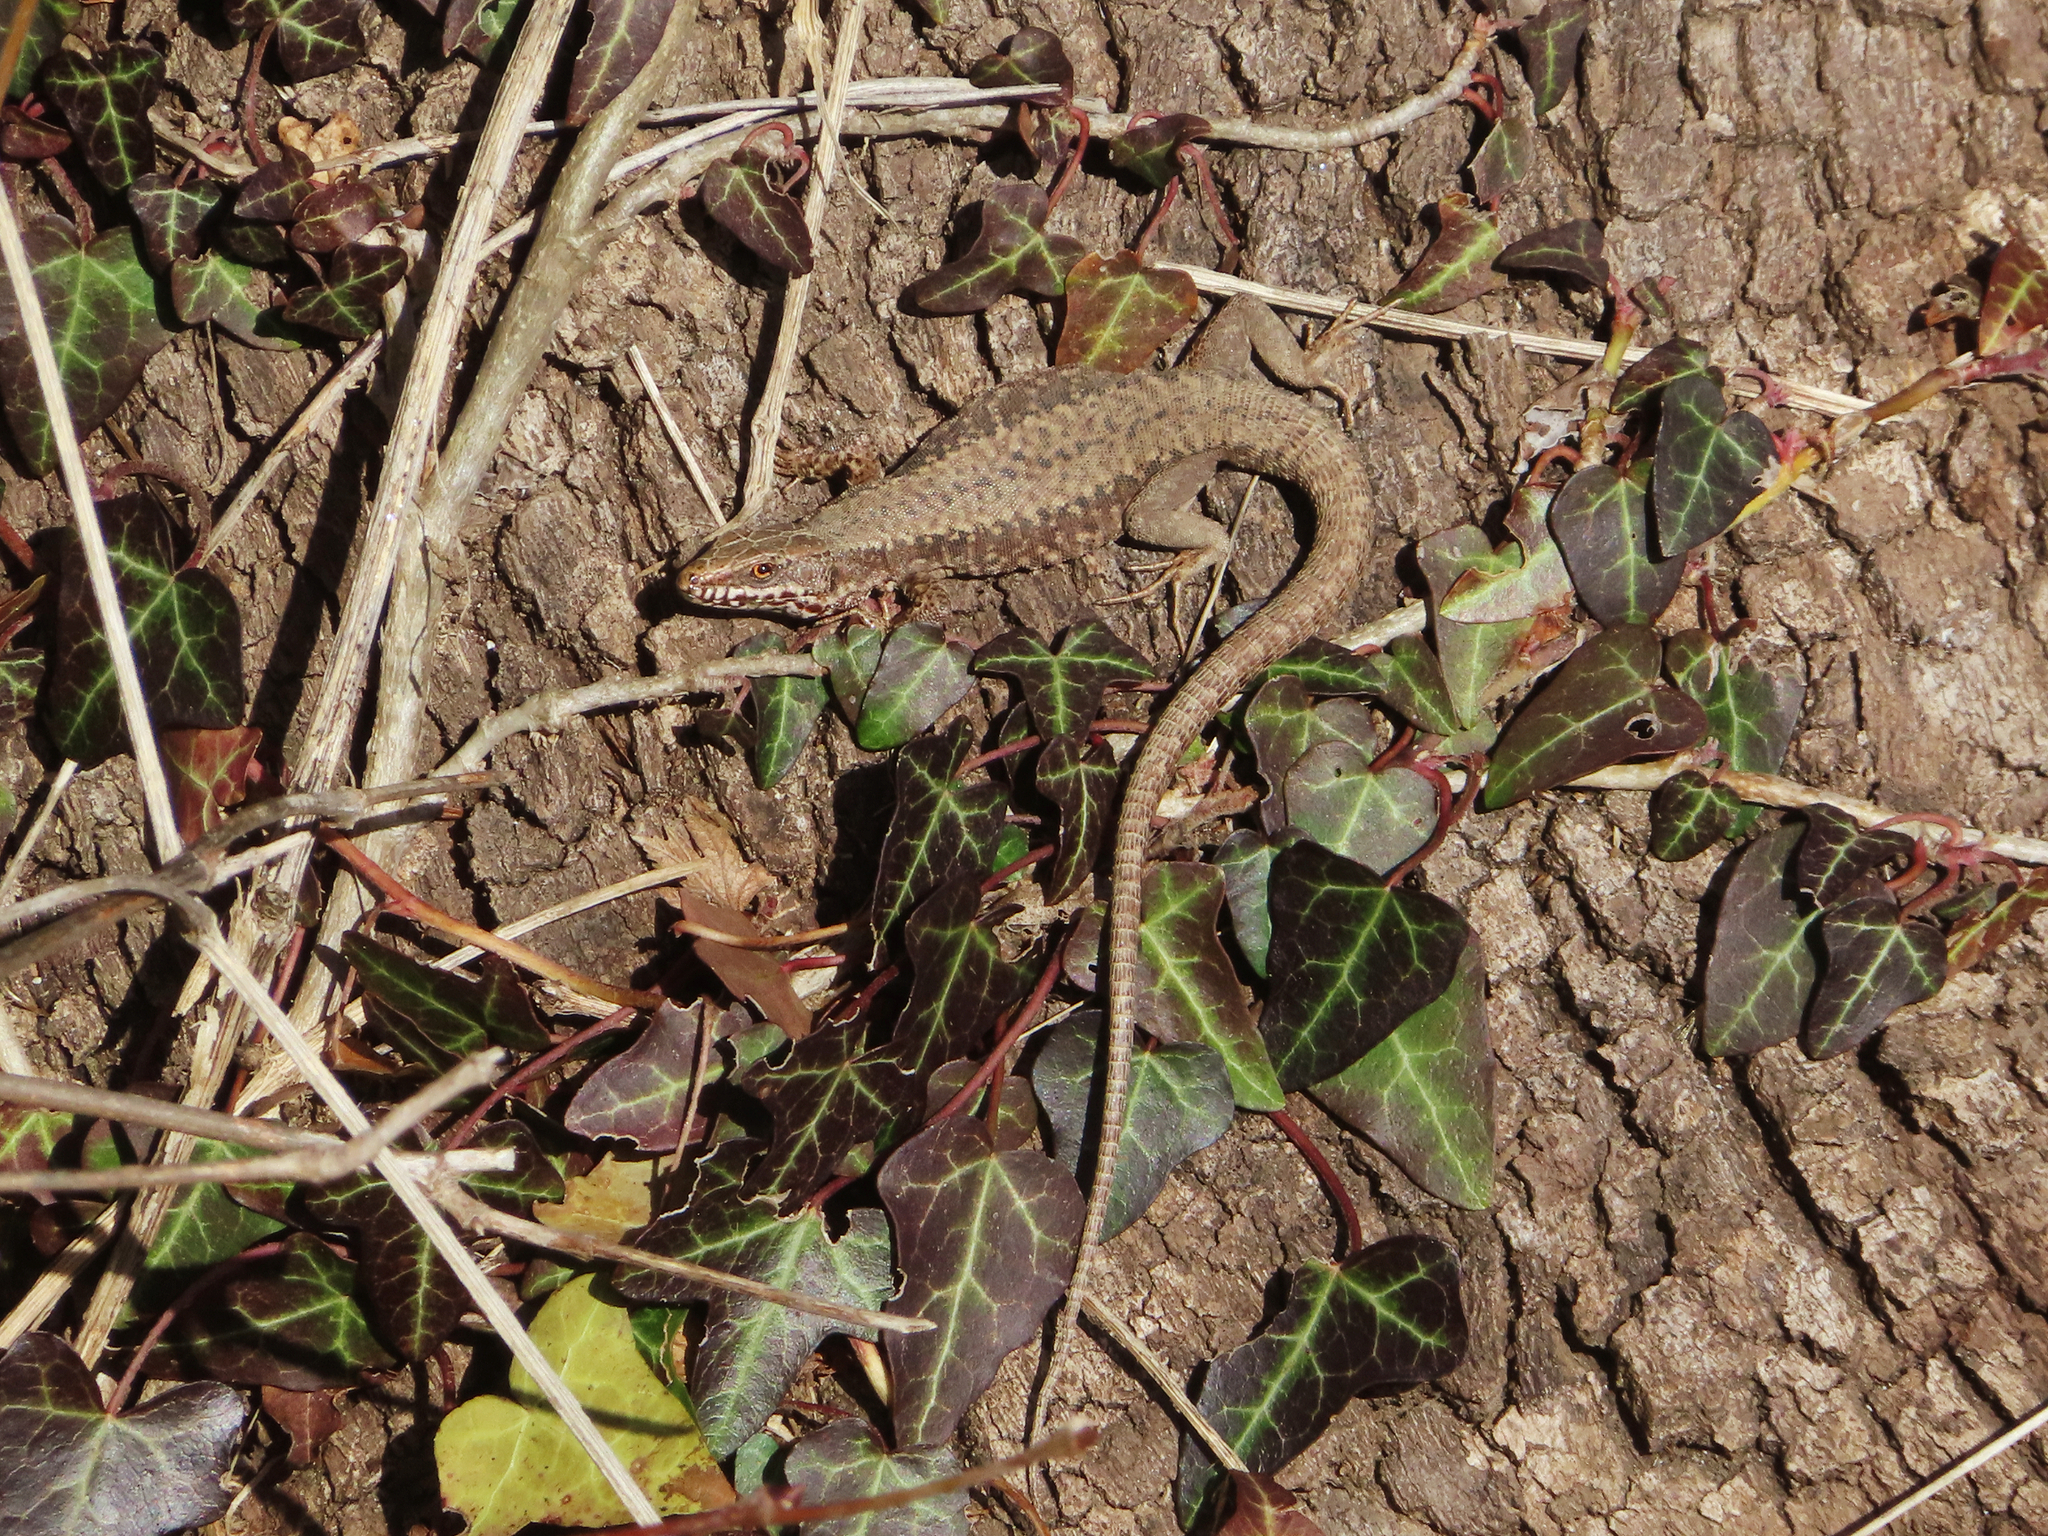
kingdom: Animalia
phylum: Chordata
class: Squamata
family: Lacertidae
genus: Podarcis
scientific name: Podarcis muralis
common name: Common wall lizard
